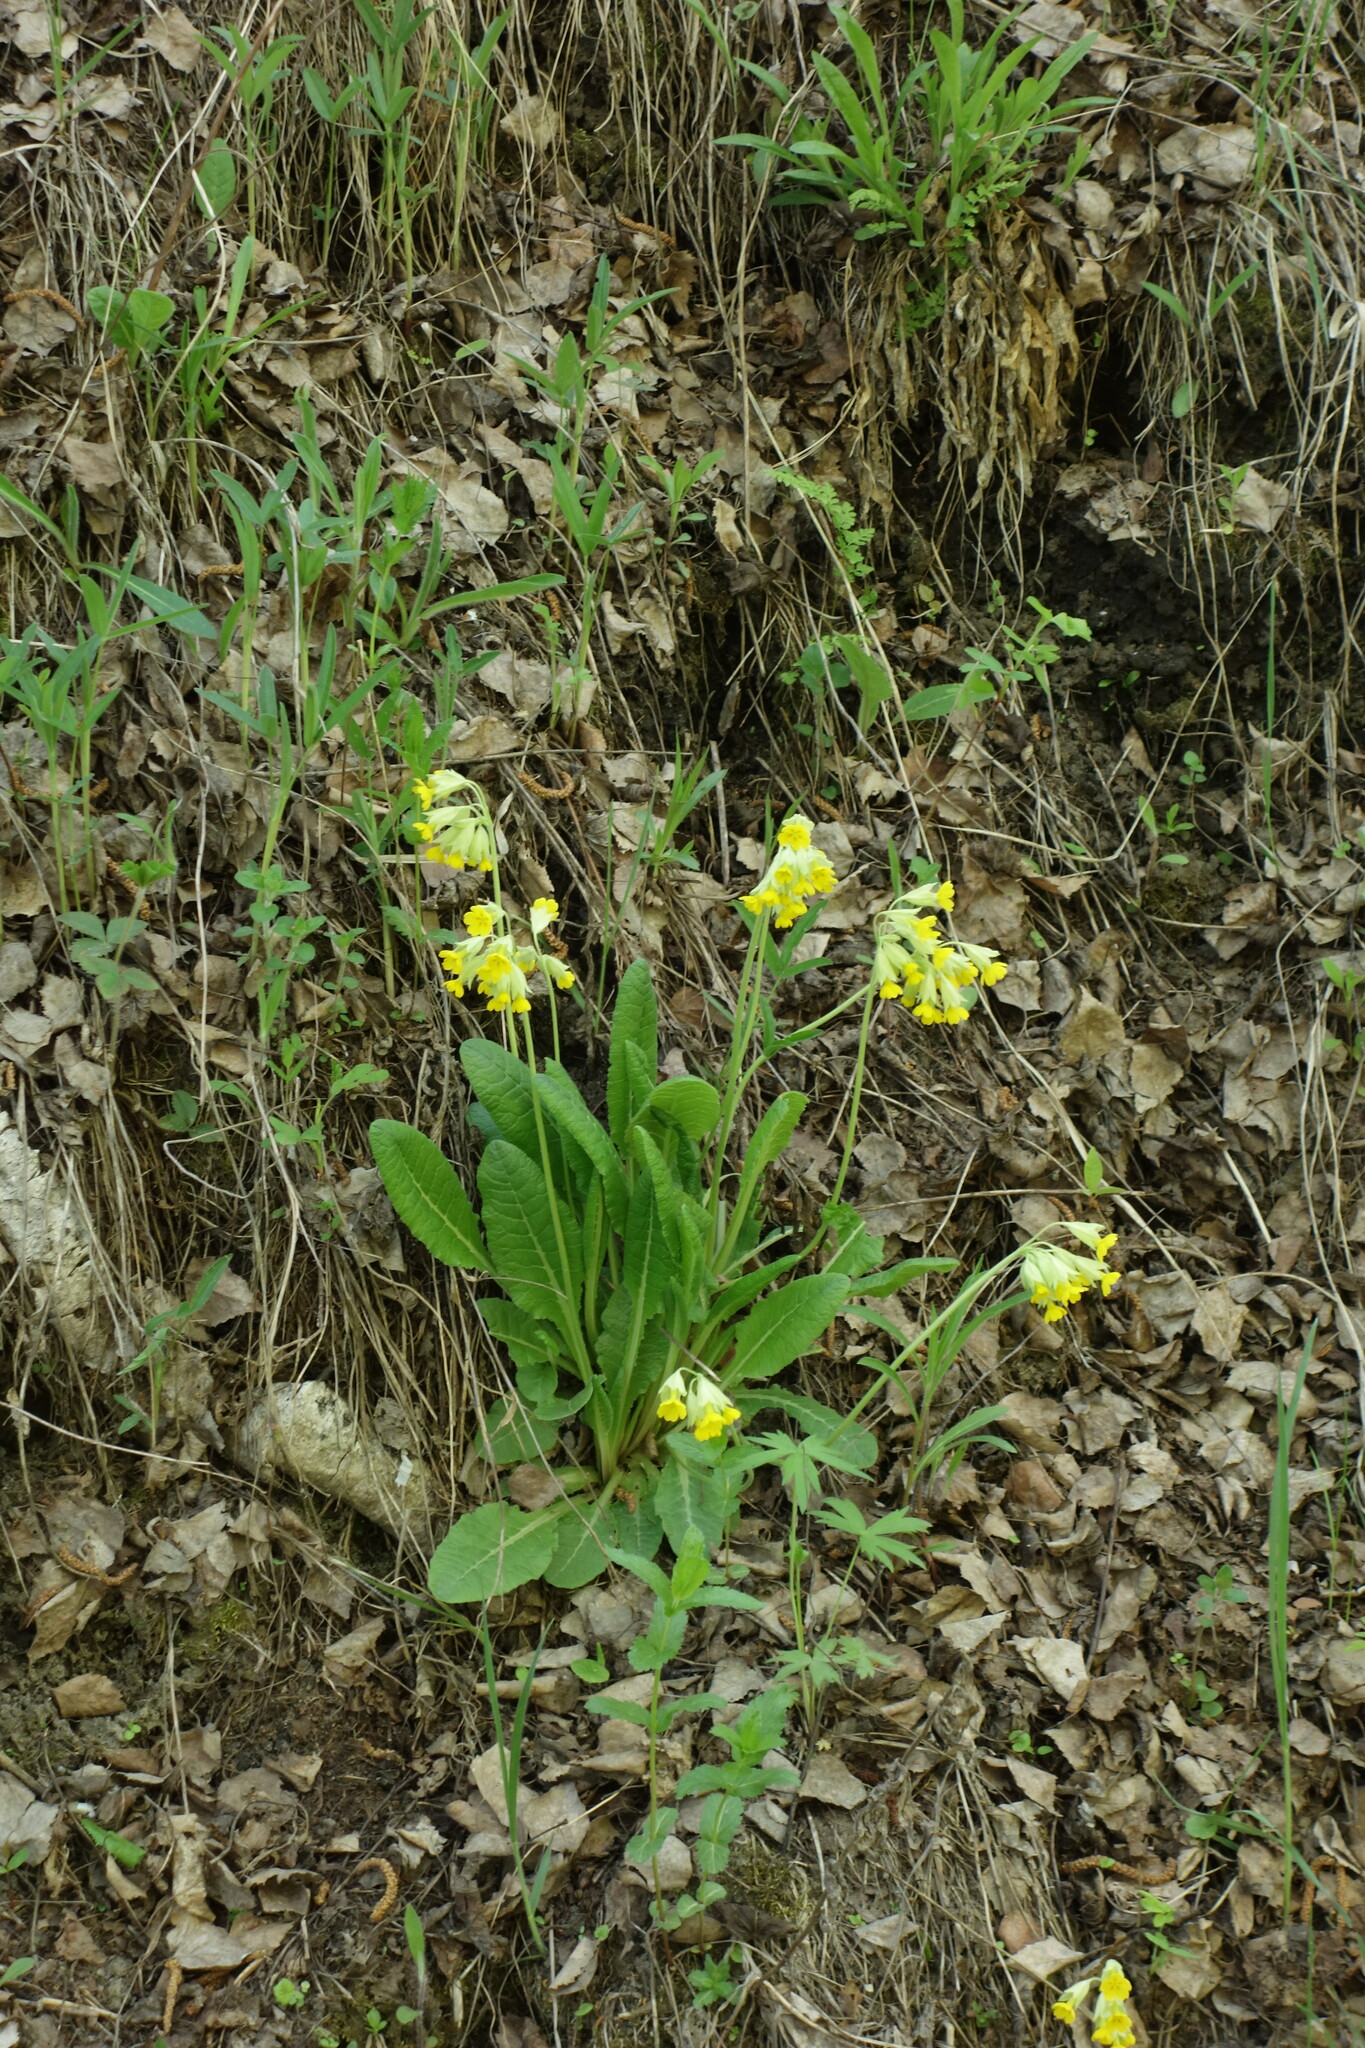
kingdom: Plantae
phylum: Tracheophyta
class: Magnoliopsida
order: Ericales
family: Primulaceae
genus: Primula
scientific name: Primula veris
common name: Cowslip
